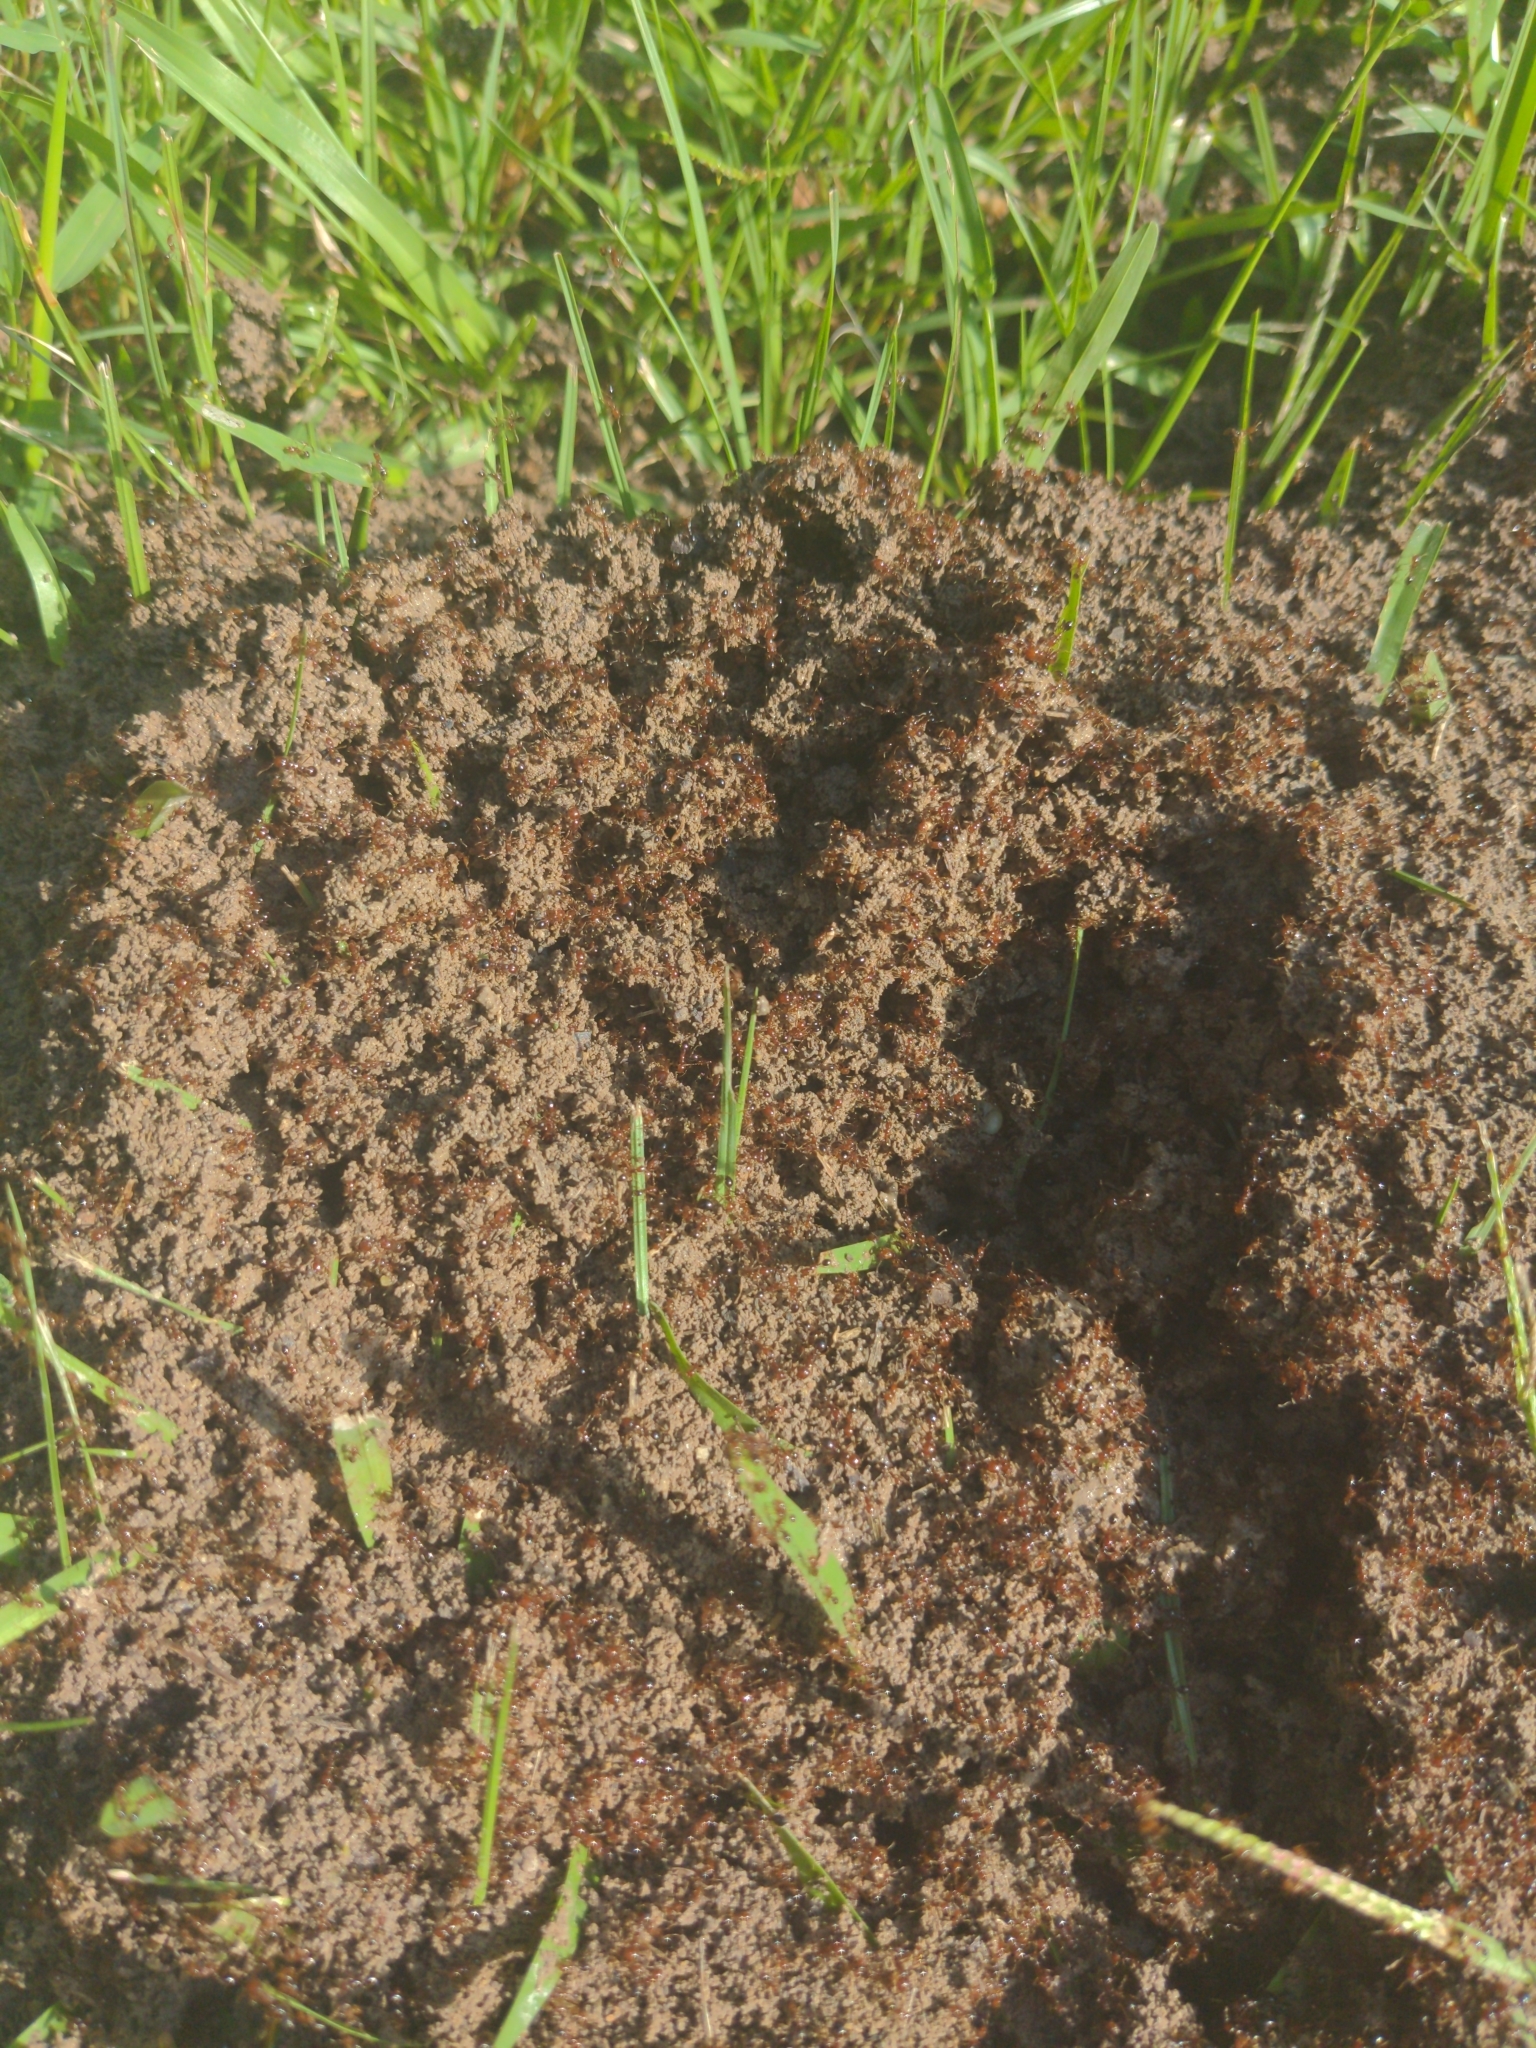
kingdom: Animalia
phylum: Arthropoda
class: Insecta
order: Hymenoptera
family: Formicidae
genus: Solenopsis
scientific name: Solenopsis invicta
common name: Red imported fire ant
